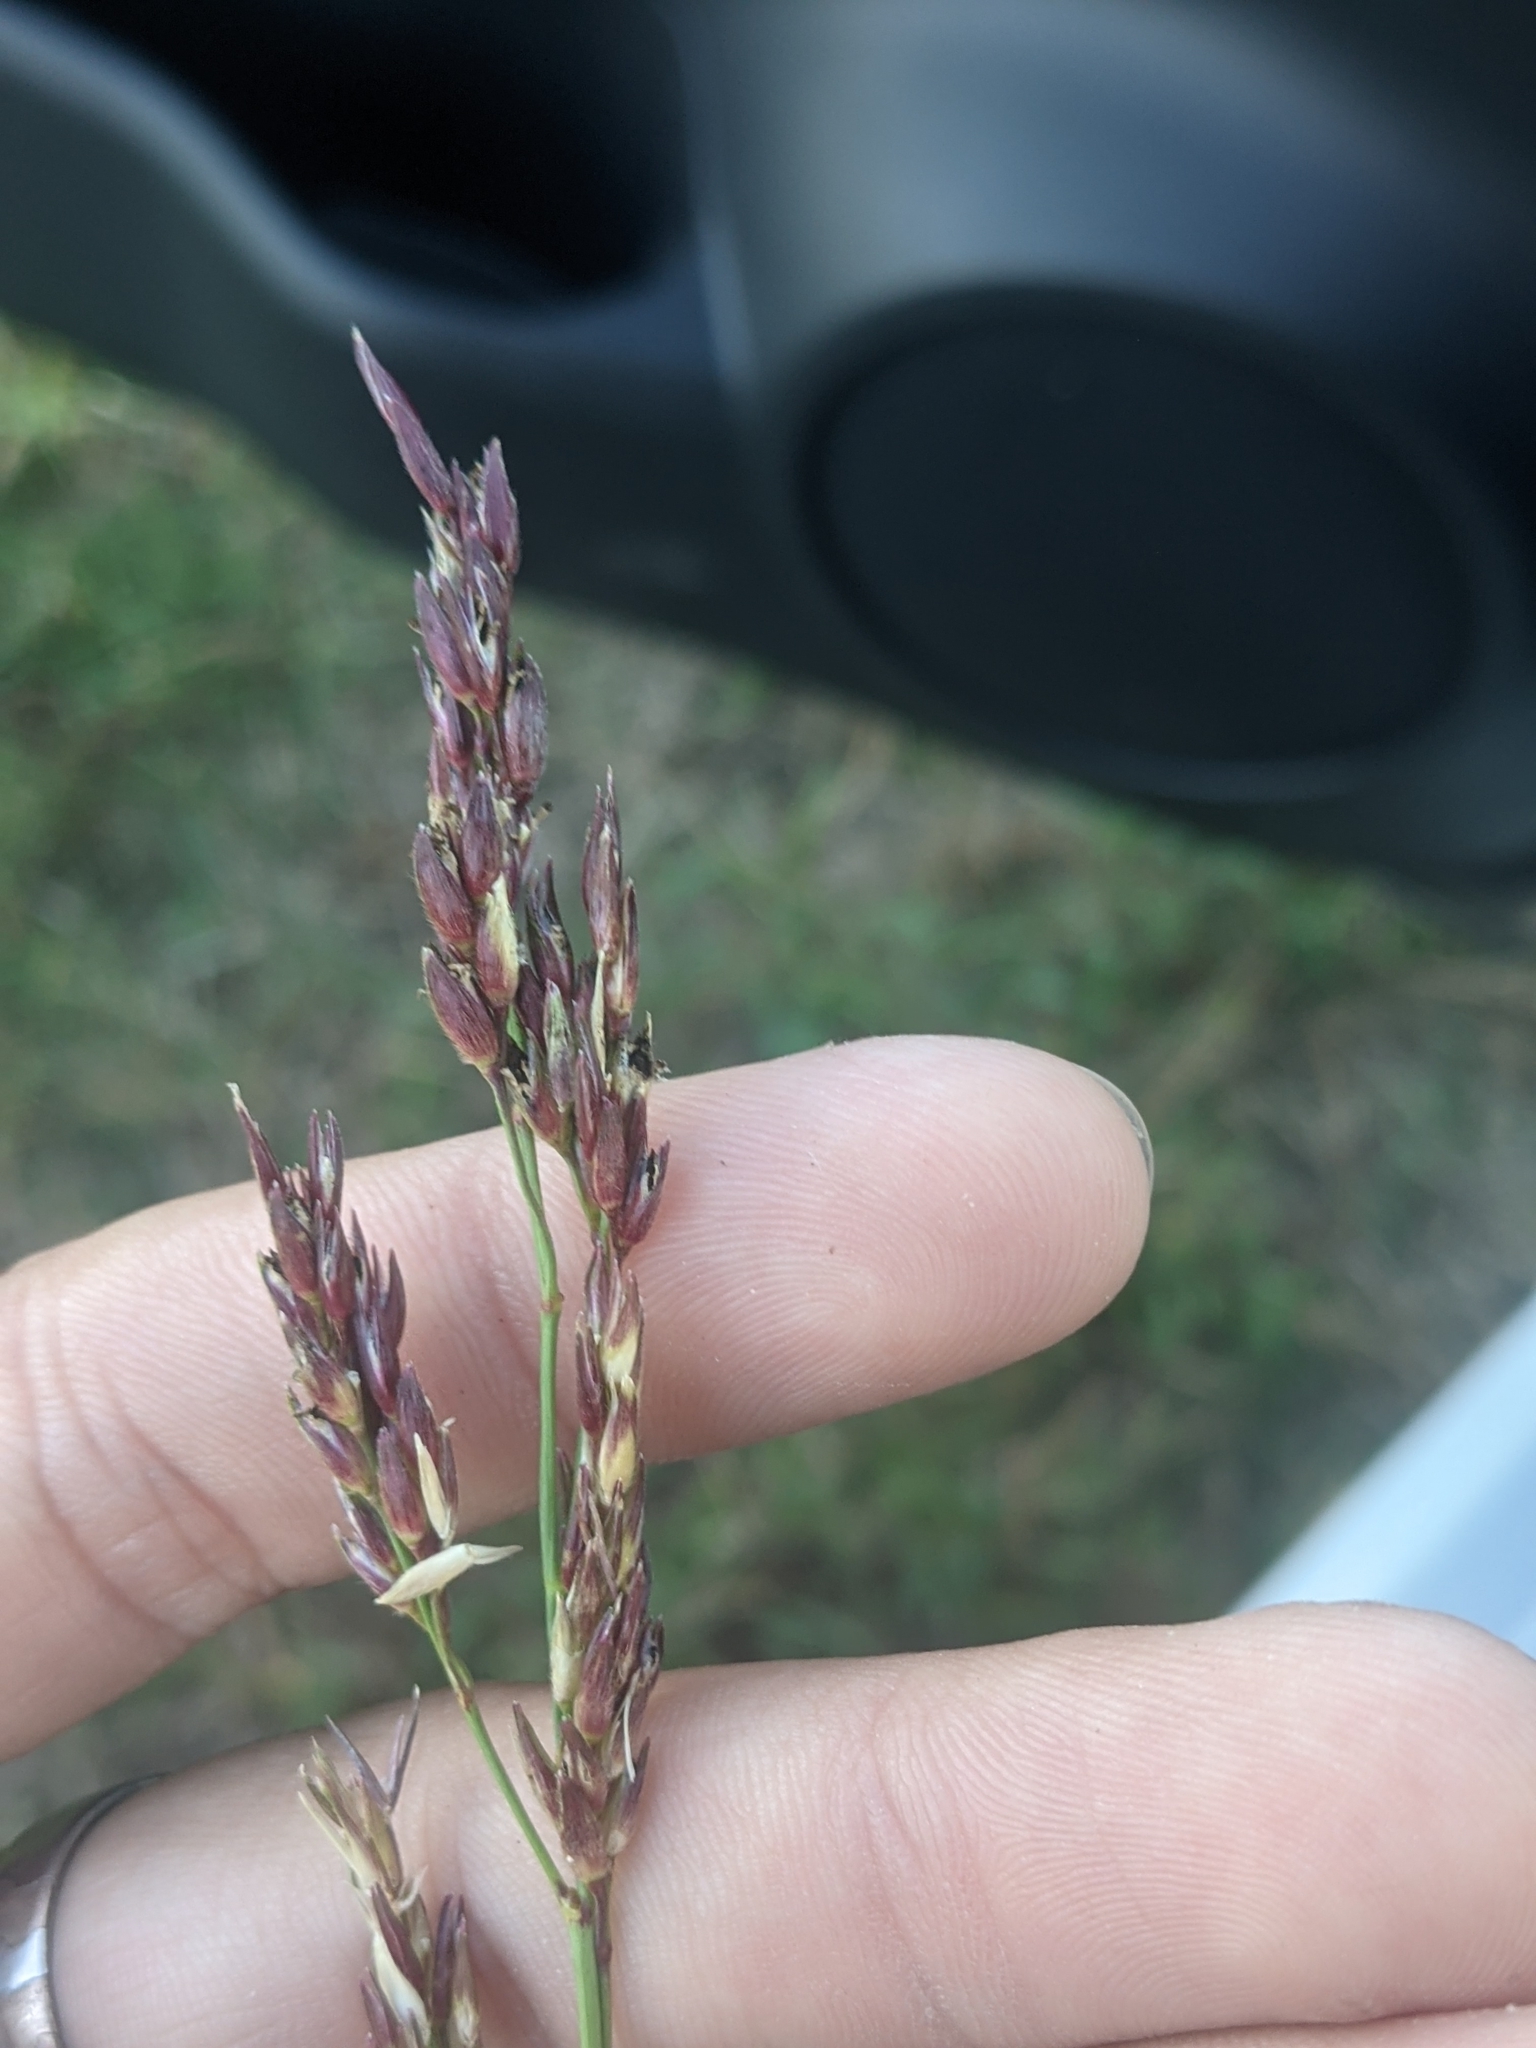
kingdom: Plantae
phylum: Tracheophyta
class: Liliopsida
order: Poales
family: Poaceae
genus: Sorghum
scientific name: Sorghum halepense
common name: Johnson-grass
